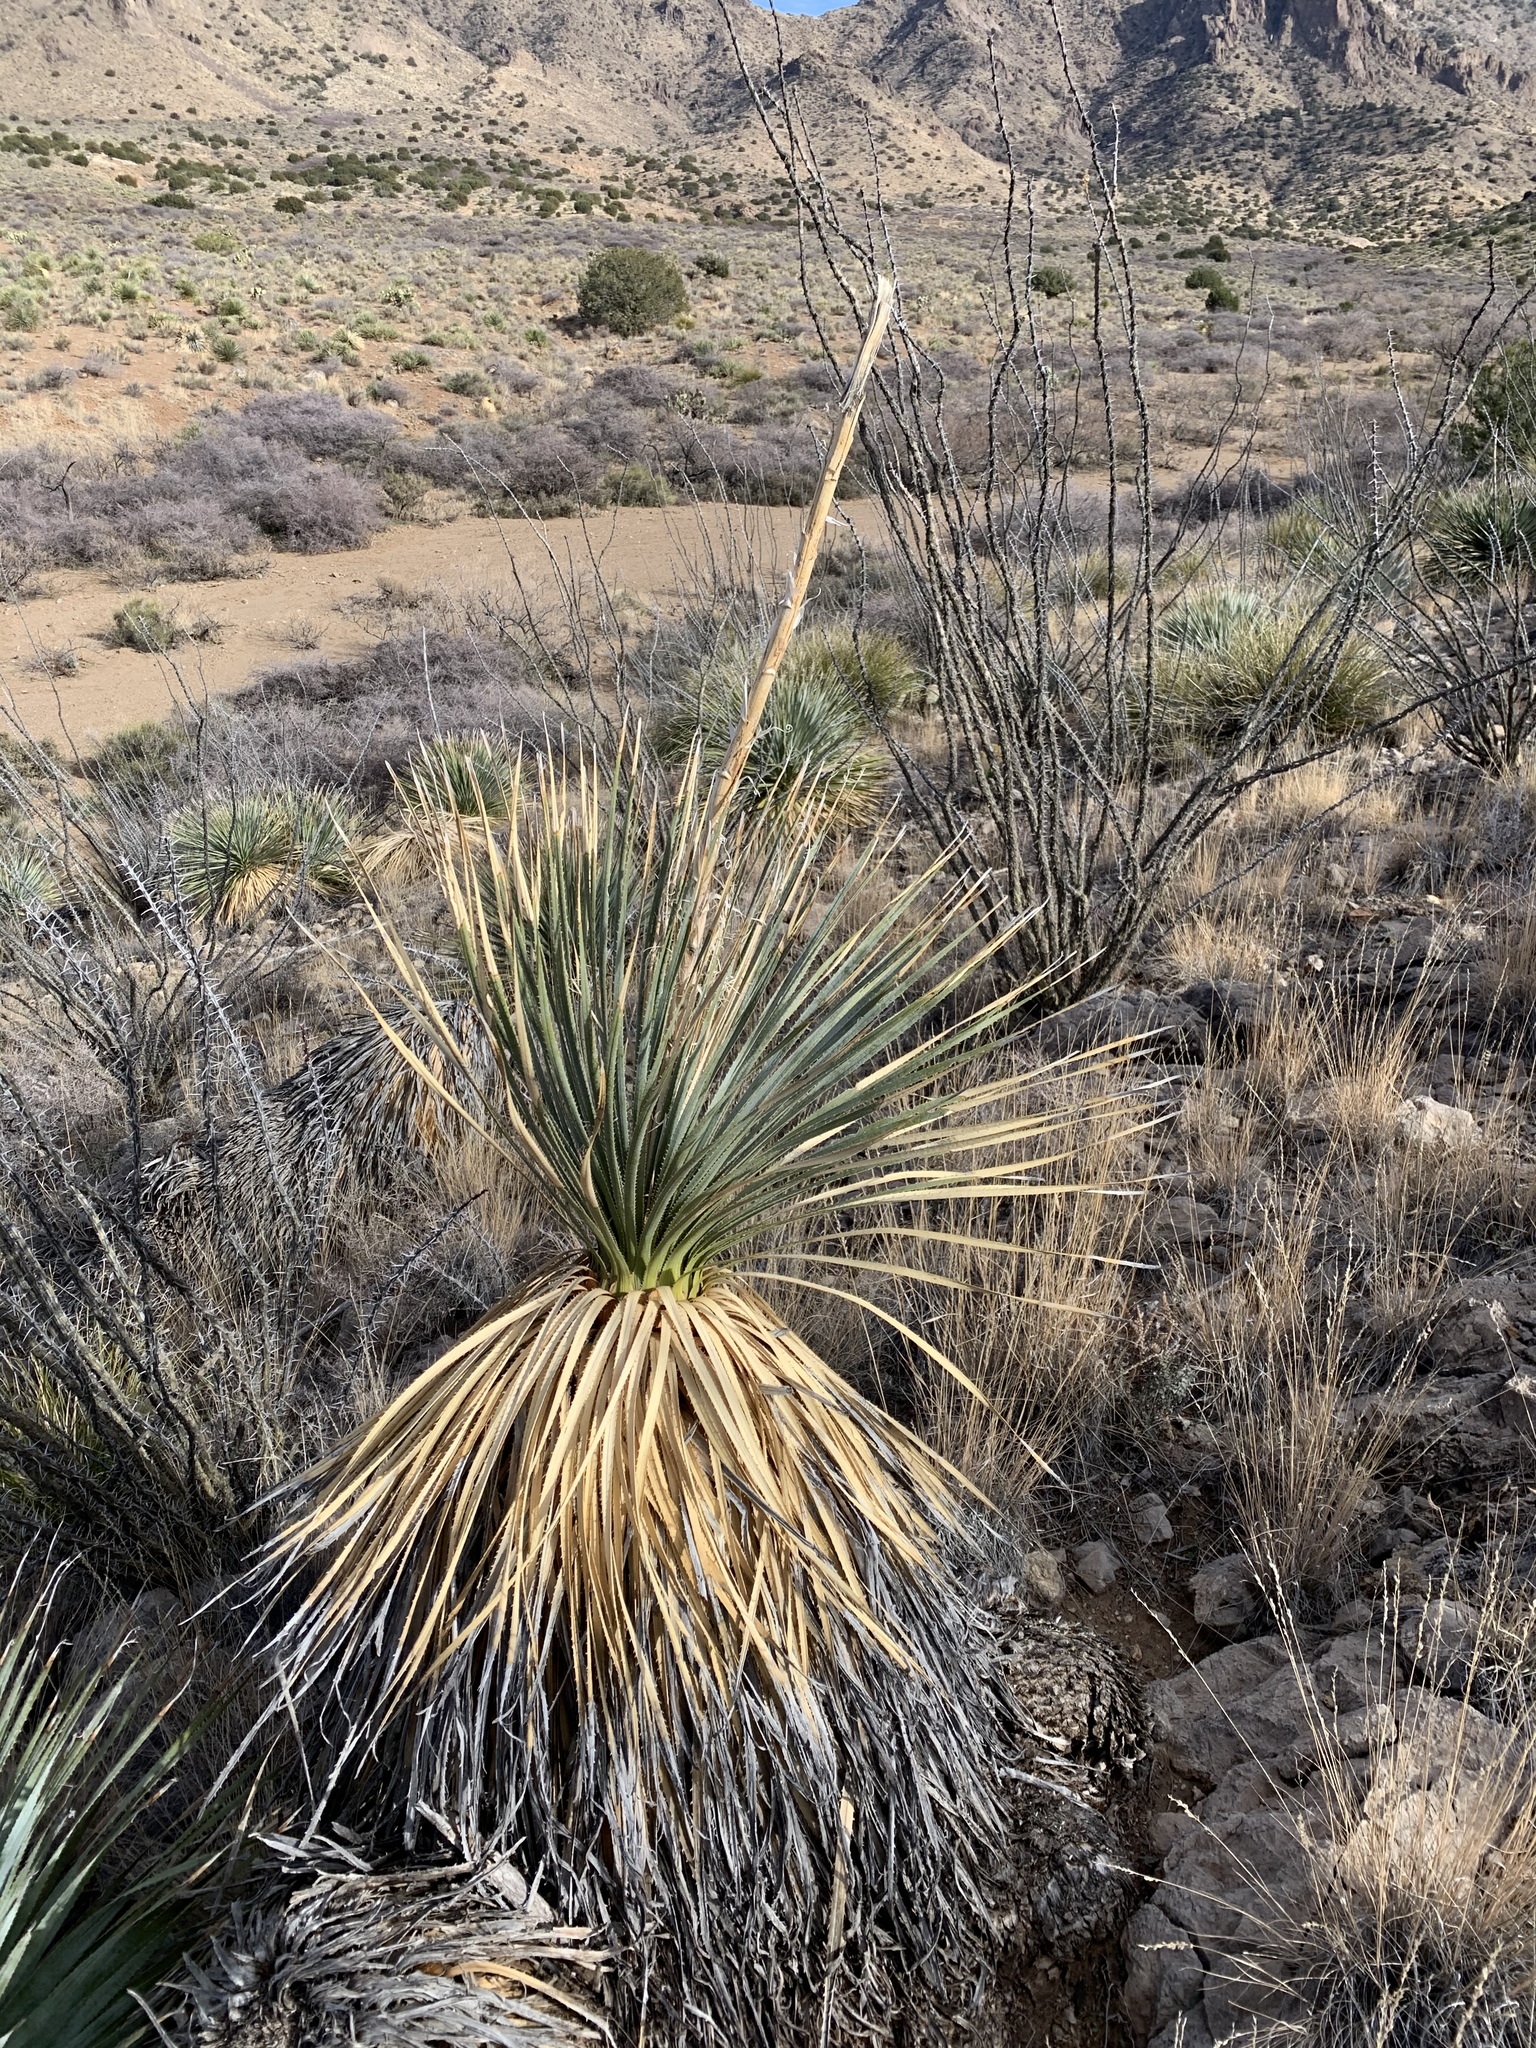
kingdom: Plantae
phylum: Tracheophyta
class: Liliopsida
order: Asparagales
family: Asparagaceae
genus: Dasylirion
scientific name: Dasylirion wheeleri
